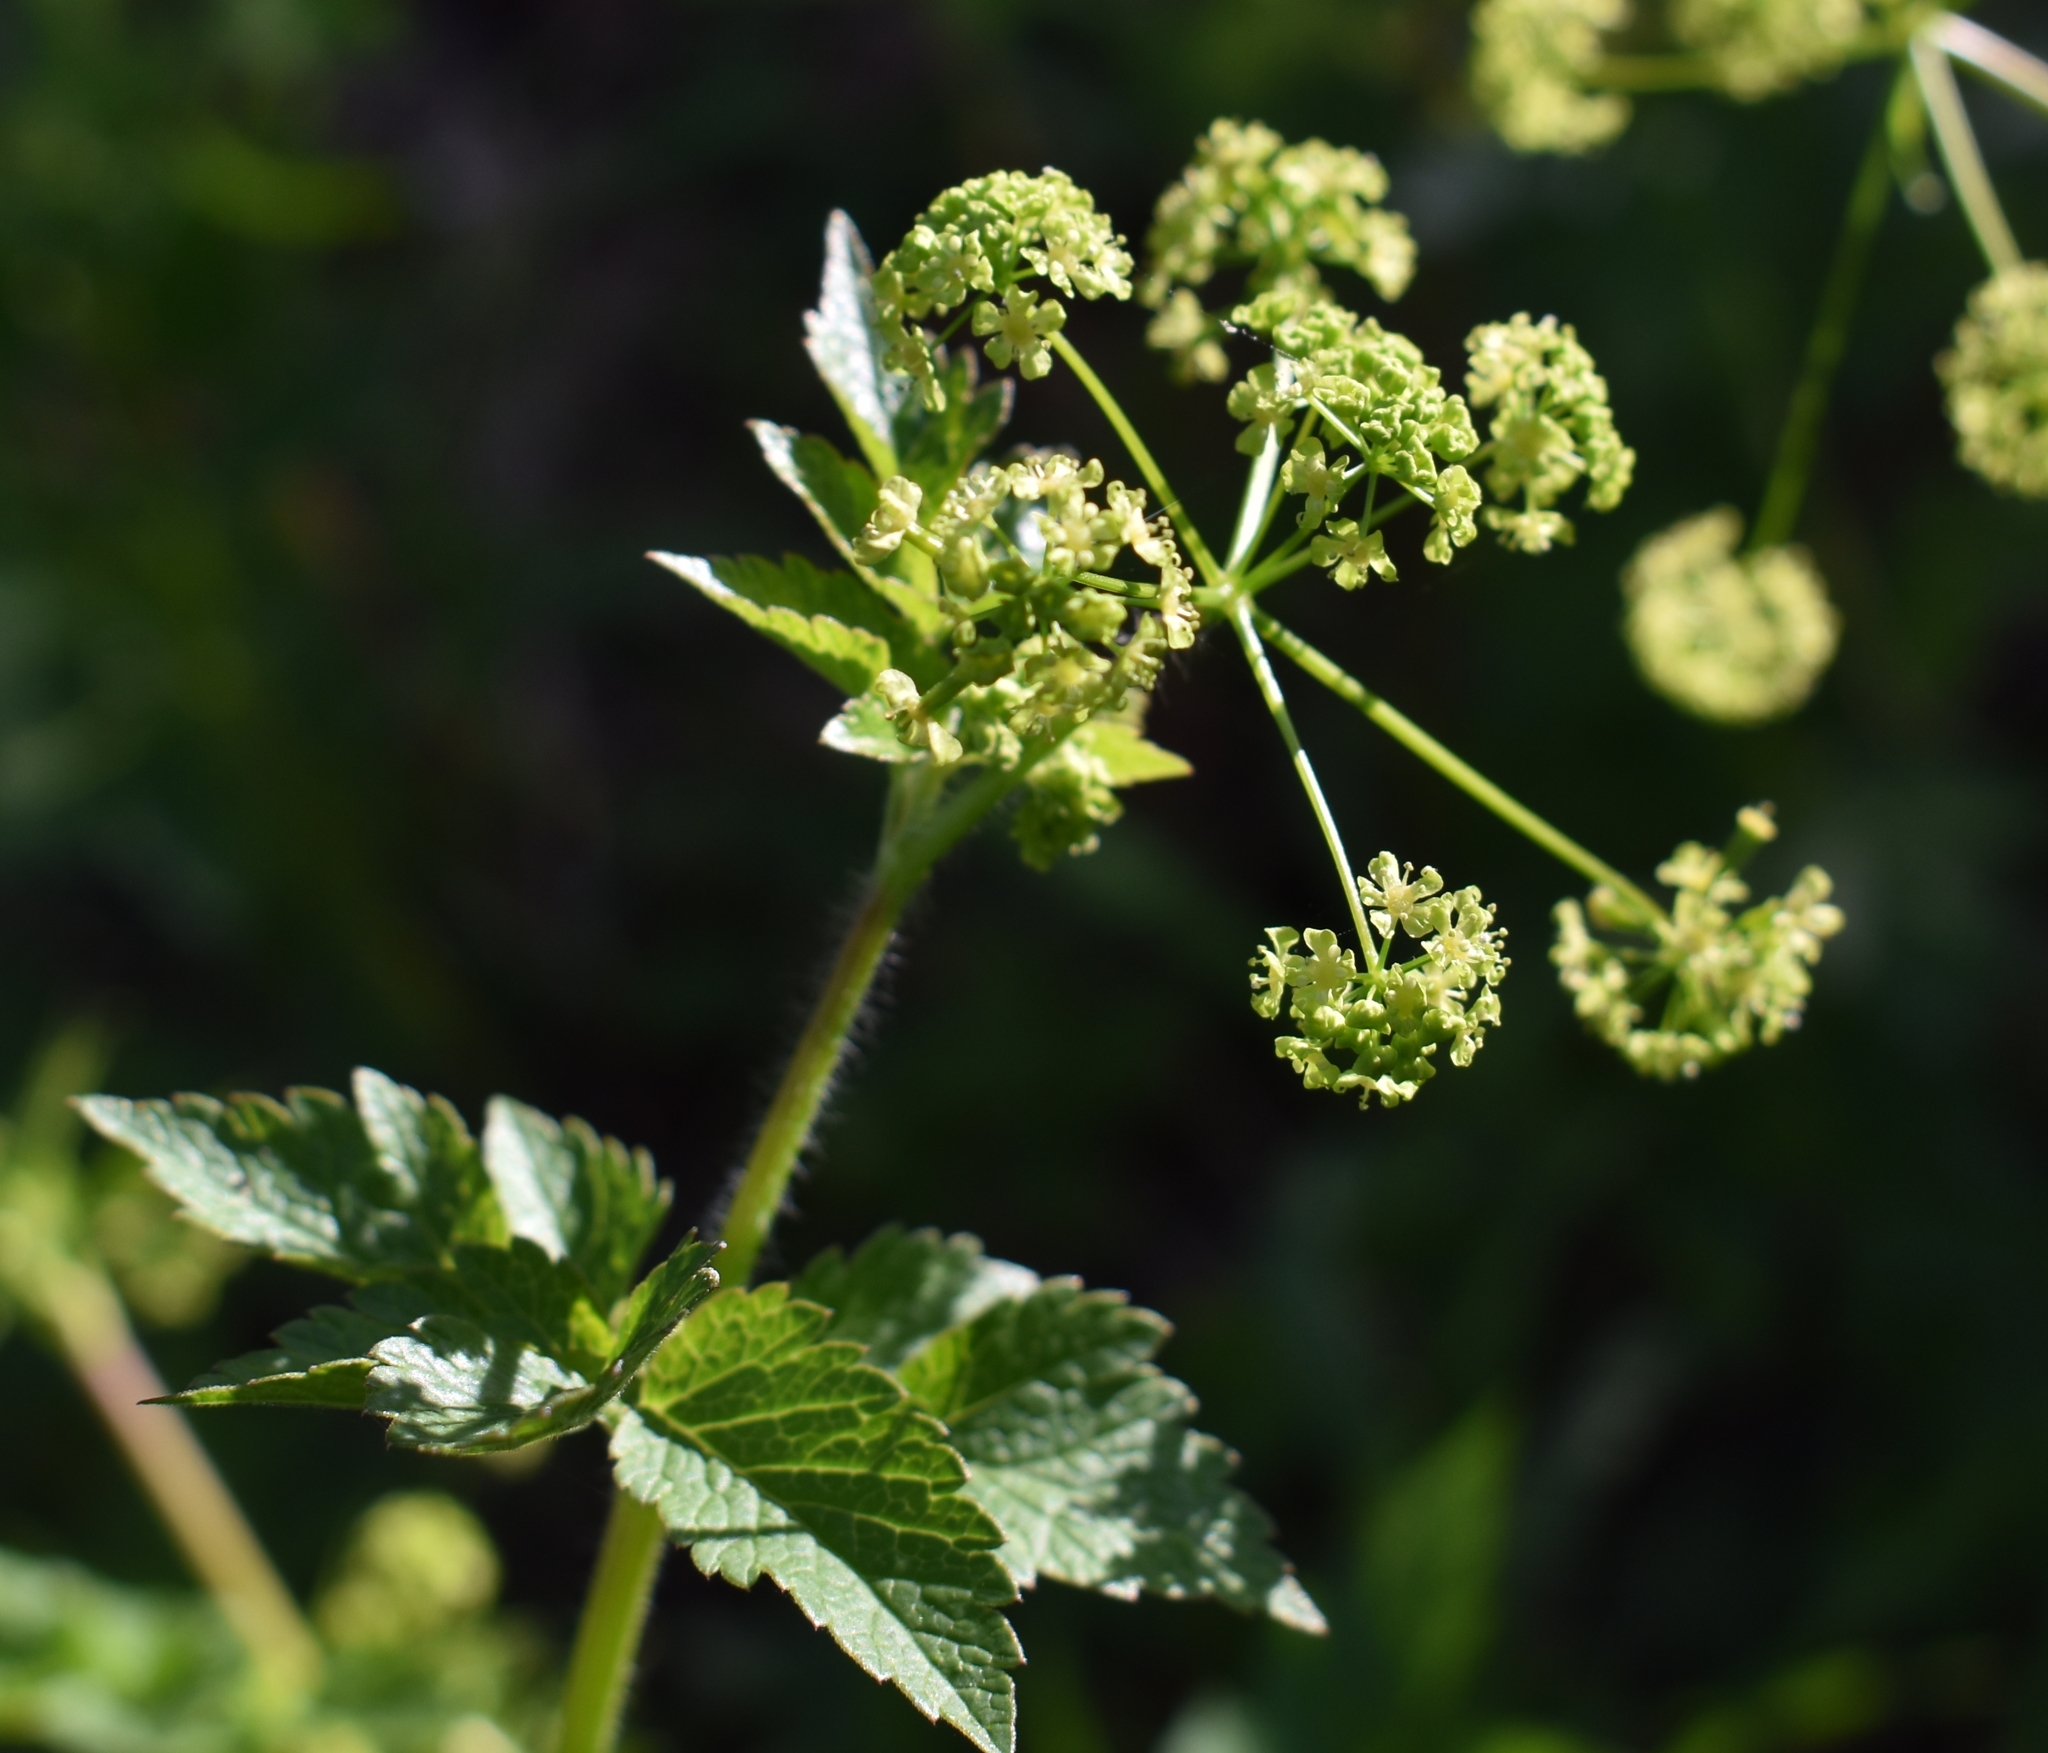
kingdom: Plantae
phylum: Tracheophyta
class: Magnoliopsida
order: Apiales
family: Apiaceae
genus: Osmorhiza
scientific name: Osmorhiza occidentalis
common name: Western sweet cicely
